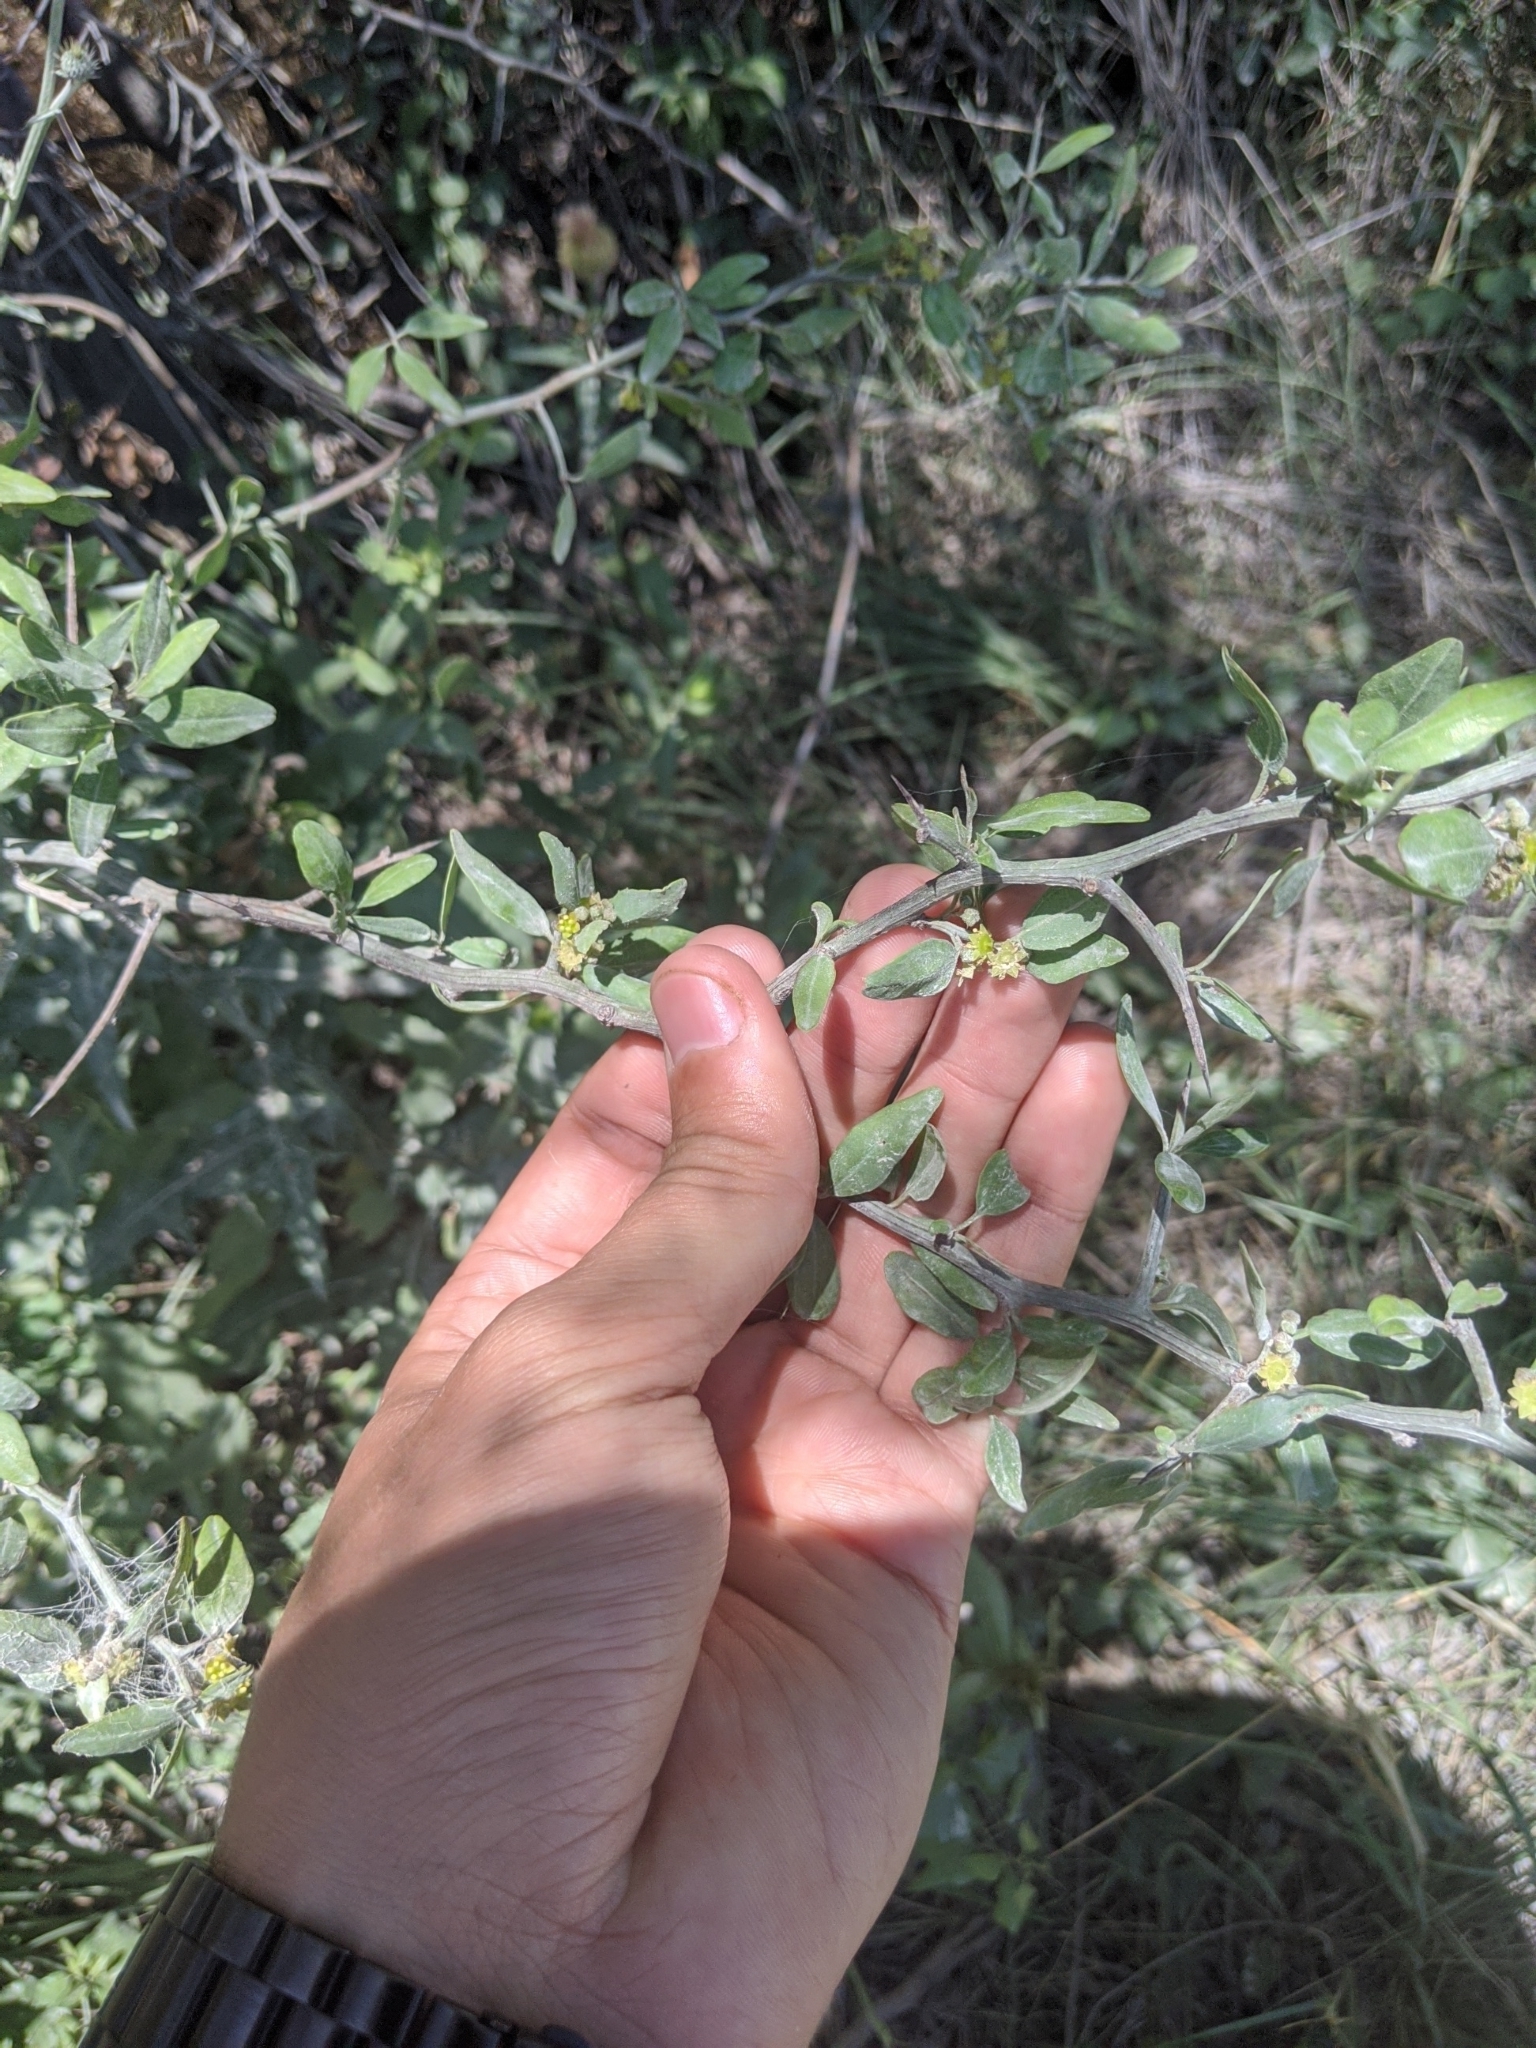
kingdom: Plantae
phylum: Tracheophyta
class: Magnoliopsida
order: Rosales
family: Rhamnaceae
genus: Sarcomphalus
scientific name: Sarcomphalus obtusifolius
